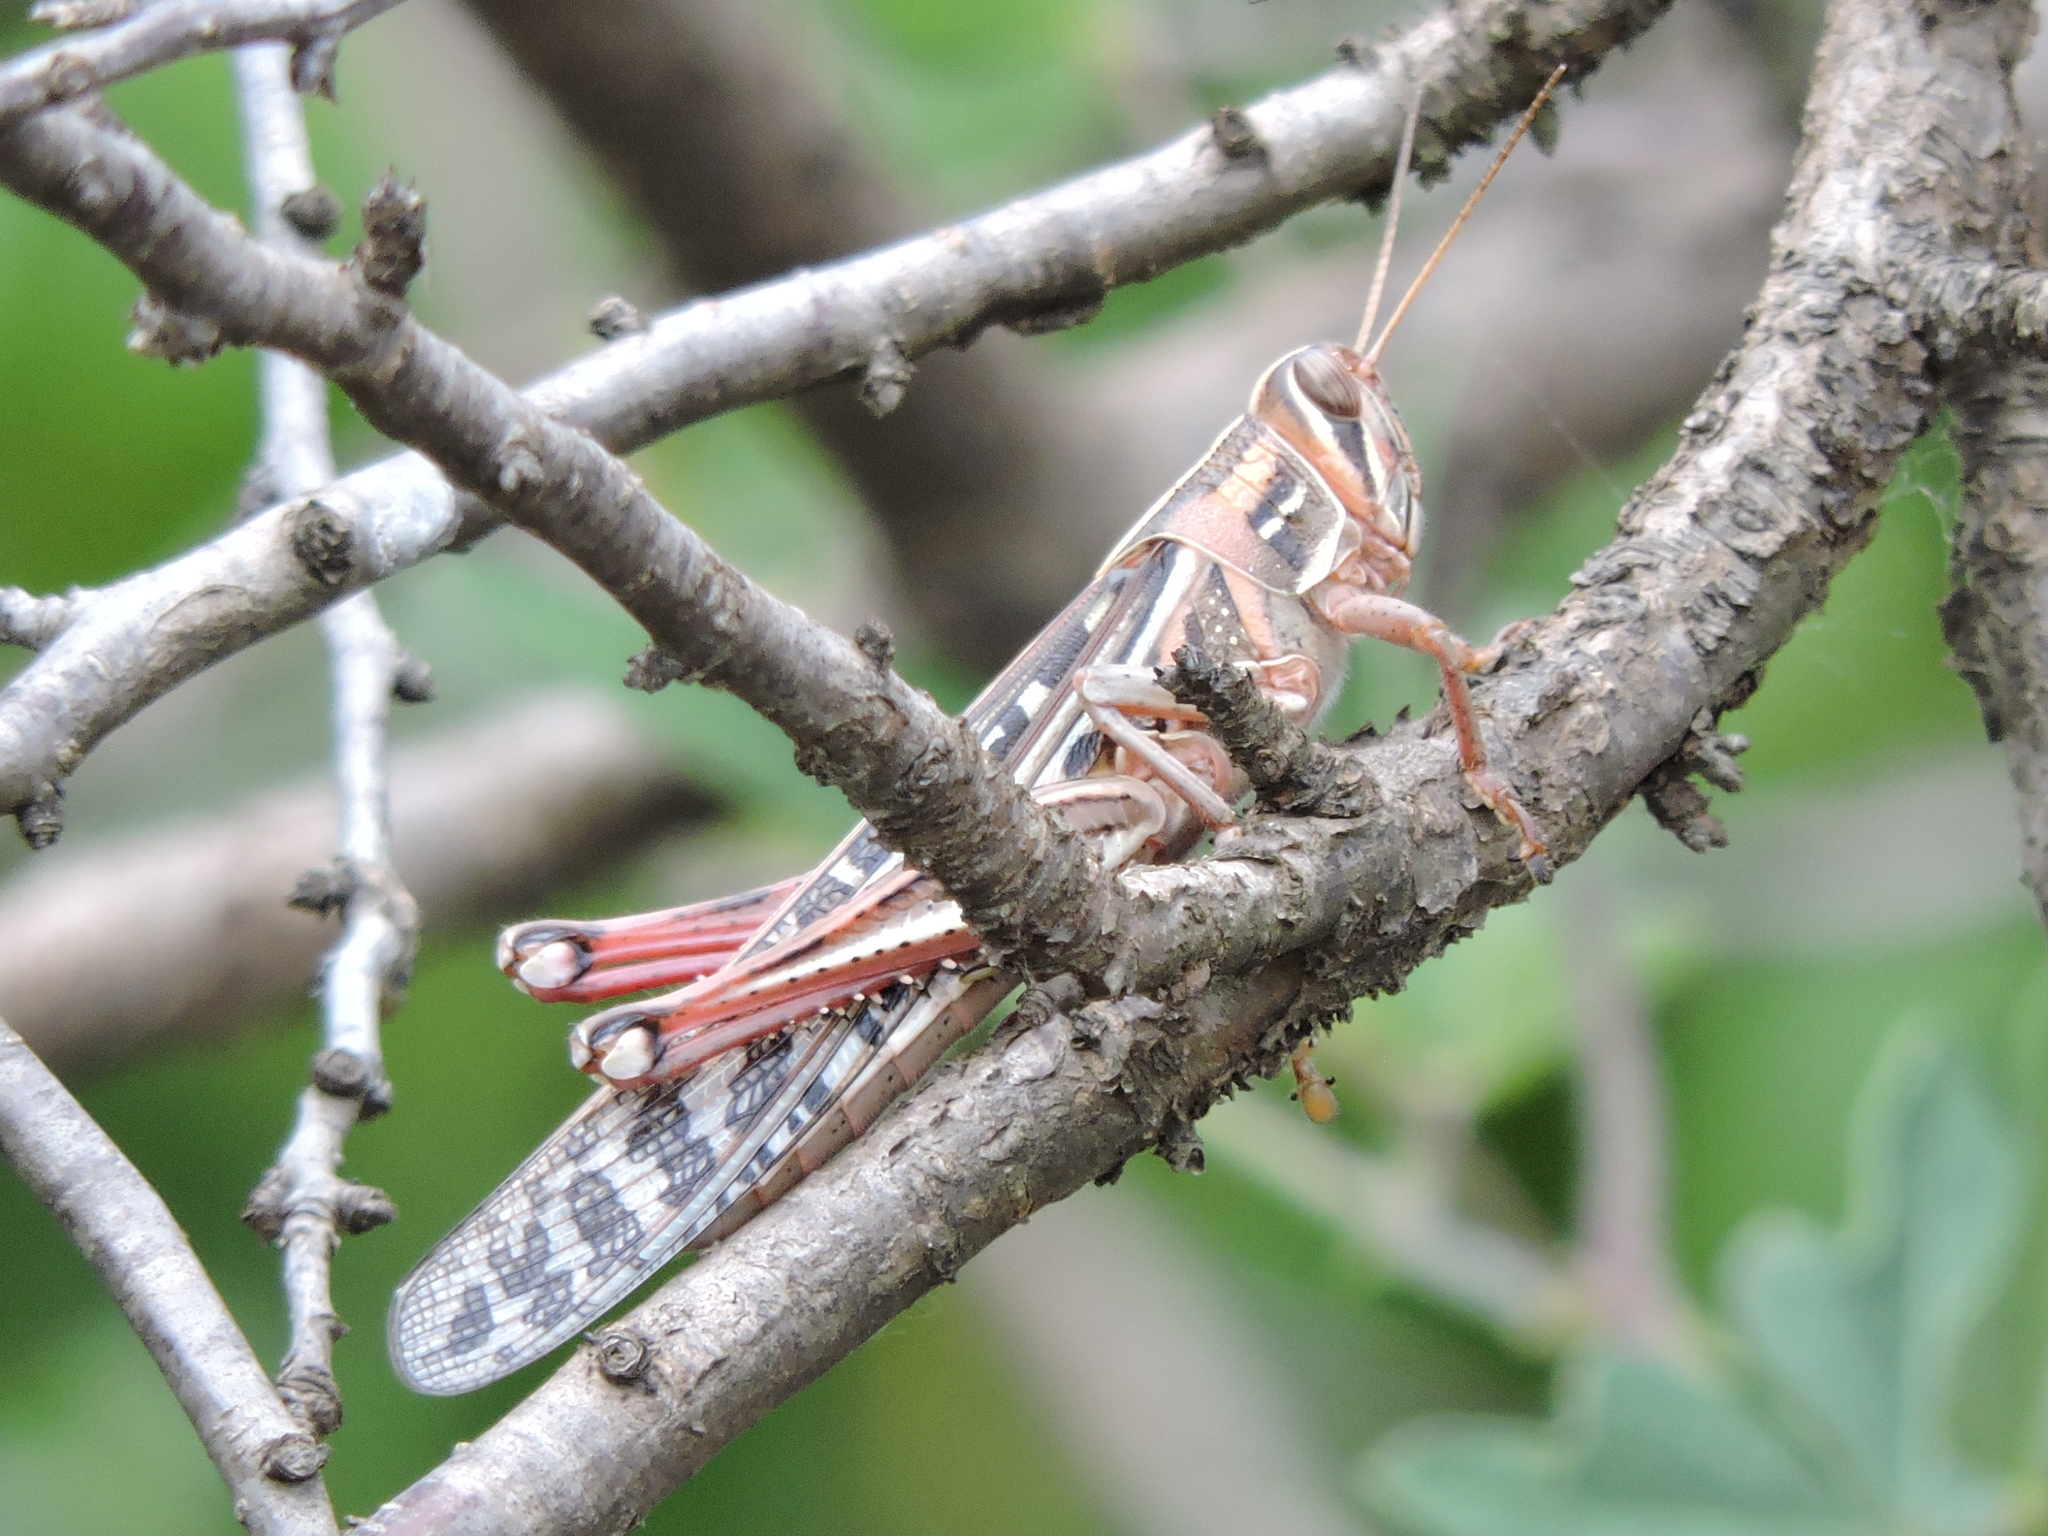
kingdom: Animalia
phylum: Arthropoda
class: Insecta
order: Orthoptera
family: Acrididae
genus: Schistocerca
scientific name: Schistocerca americana
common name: American bird locust
